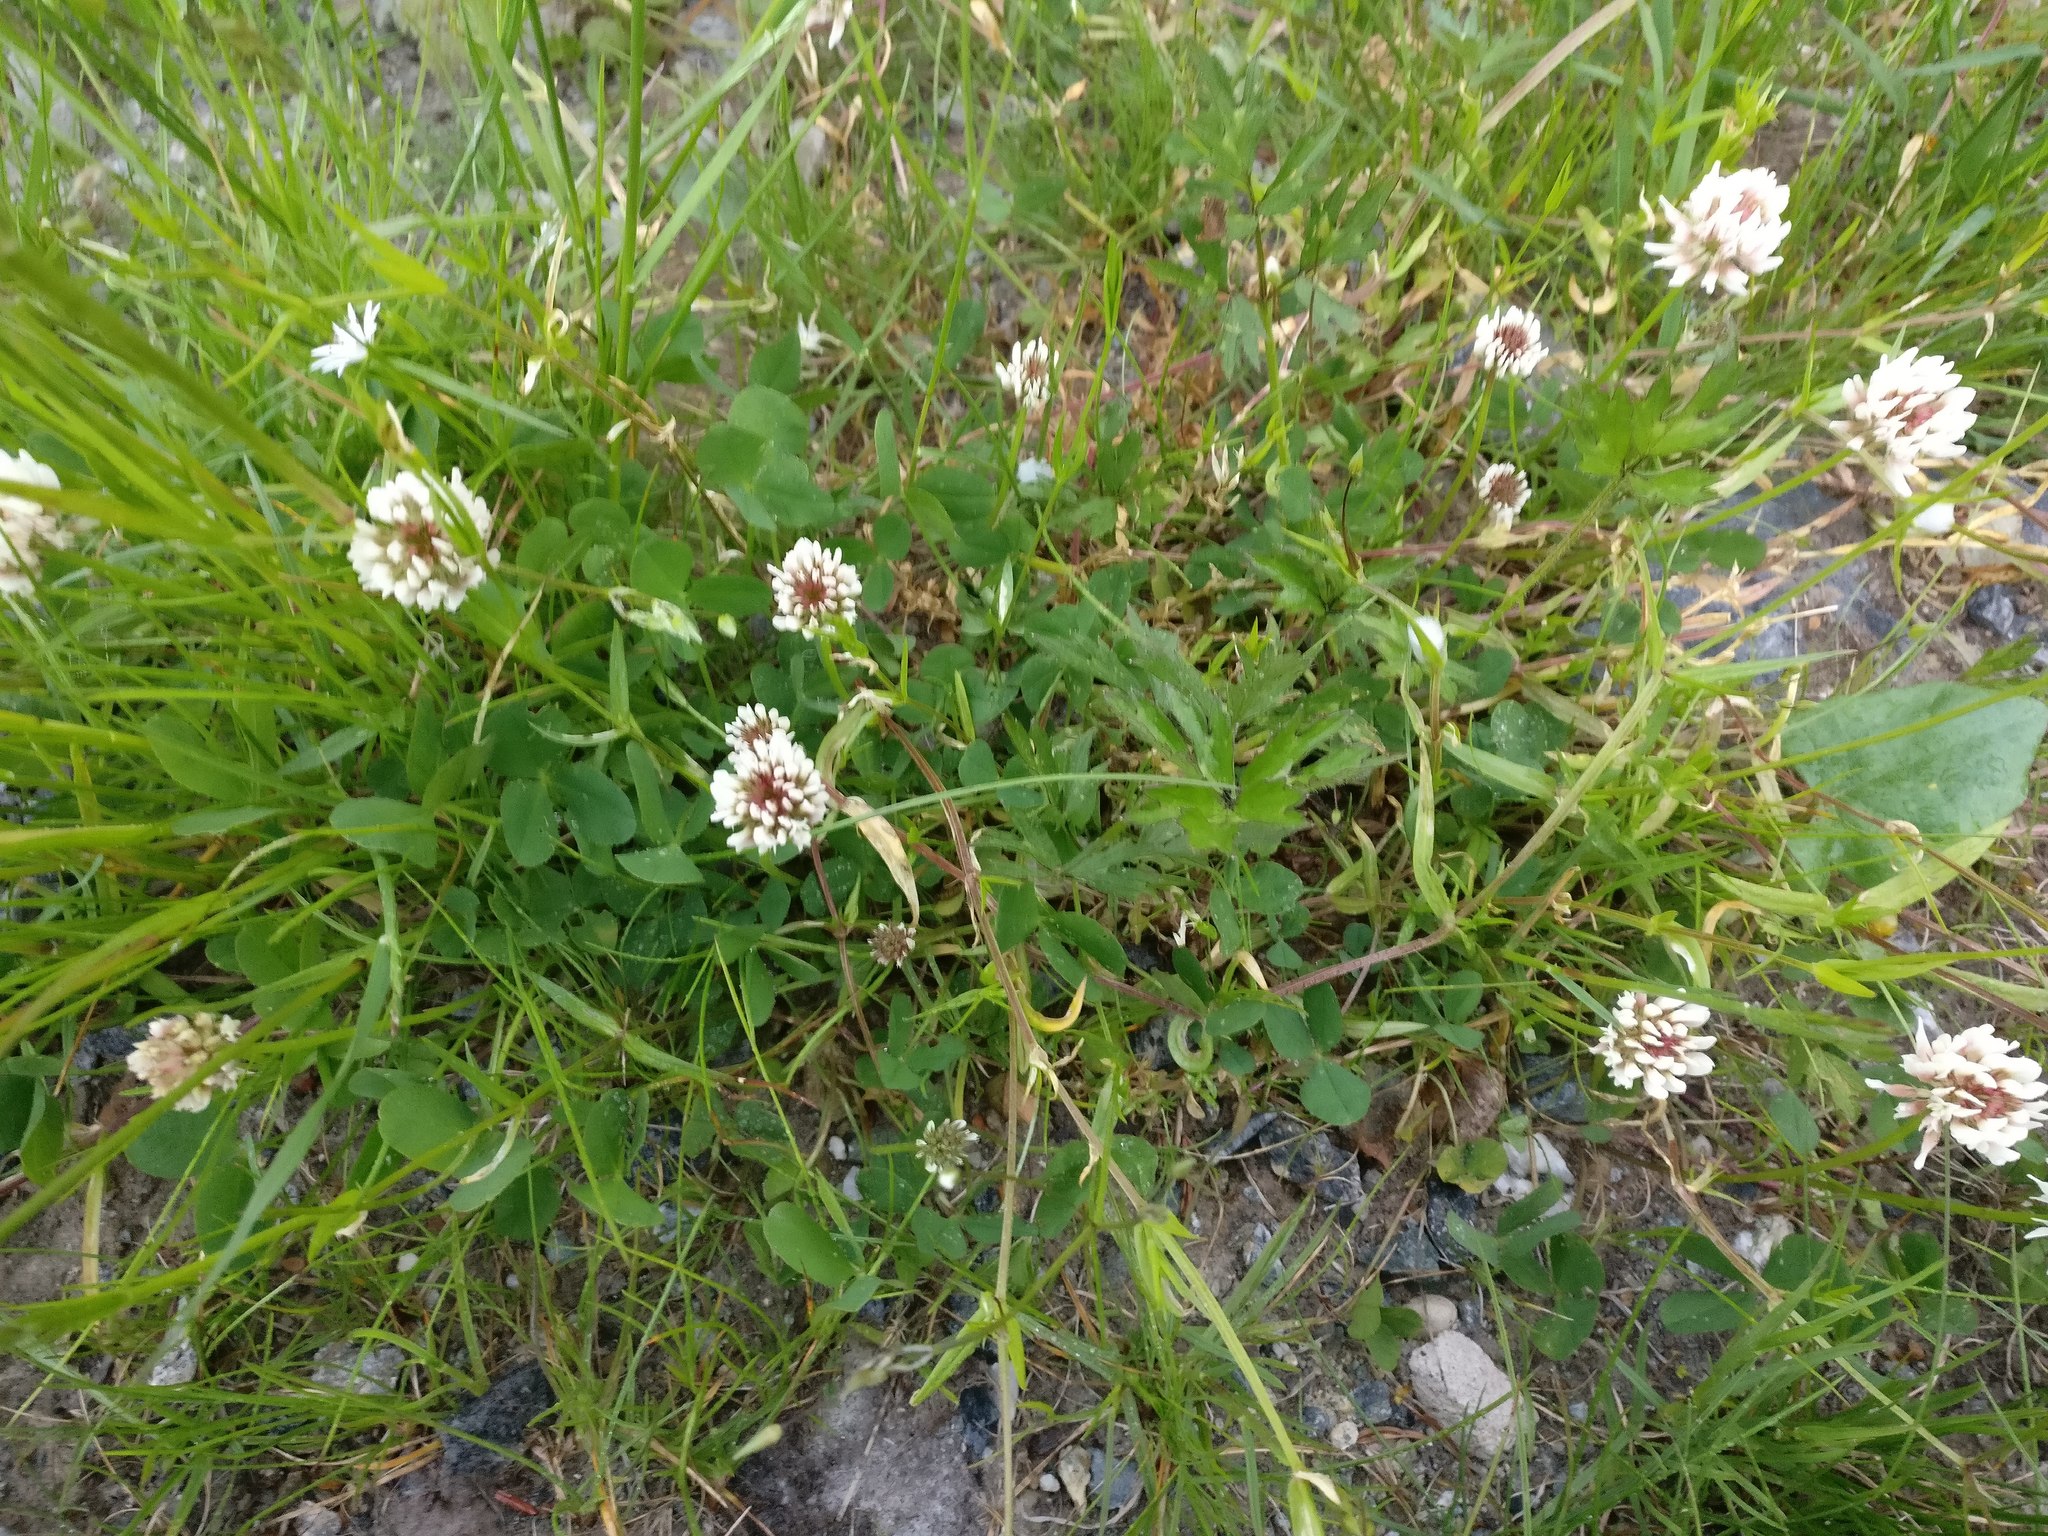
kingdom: Plantae
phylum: Tracheophyta
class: Magnoliopsida
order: Fabales
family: Fabaceae
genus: Trifolium
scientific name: Trifolium repens
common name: White clover
